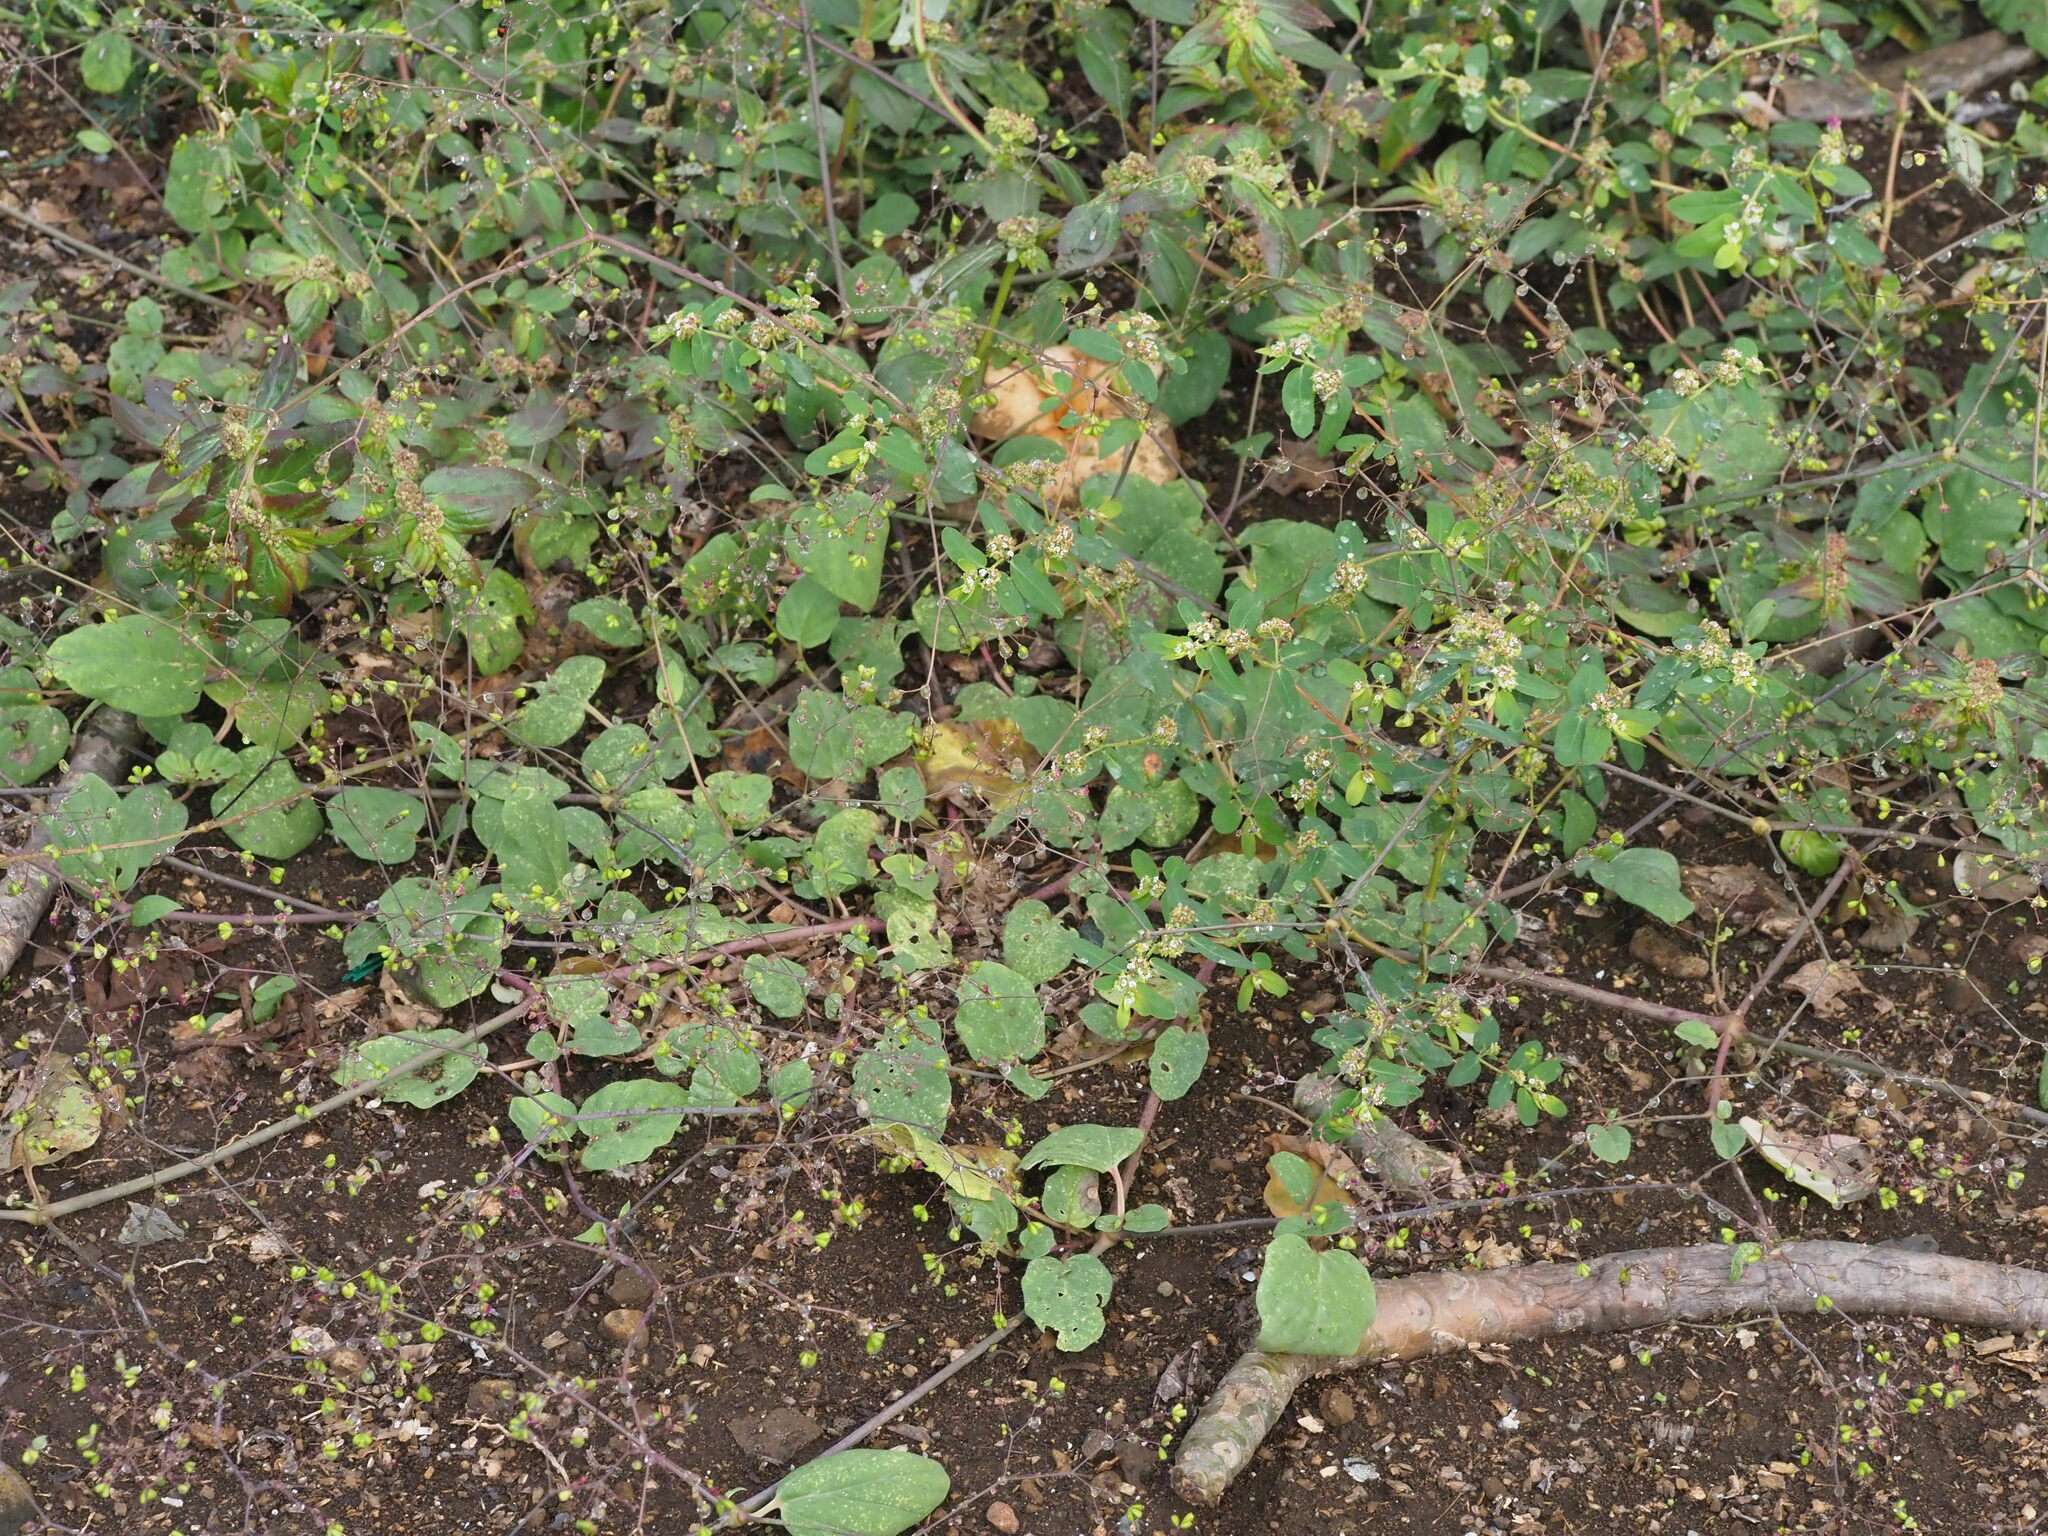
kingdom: Plantae
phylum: Tracheophyta
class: Magnoliopsida
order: Caryophyllales
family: Nyctaginaceae
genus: Boerhavia
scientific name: Boerhavia diffusa
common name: Red spiderling
